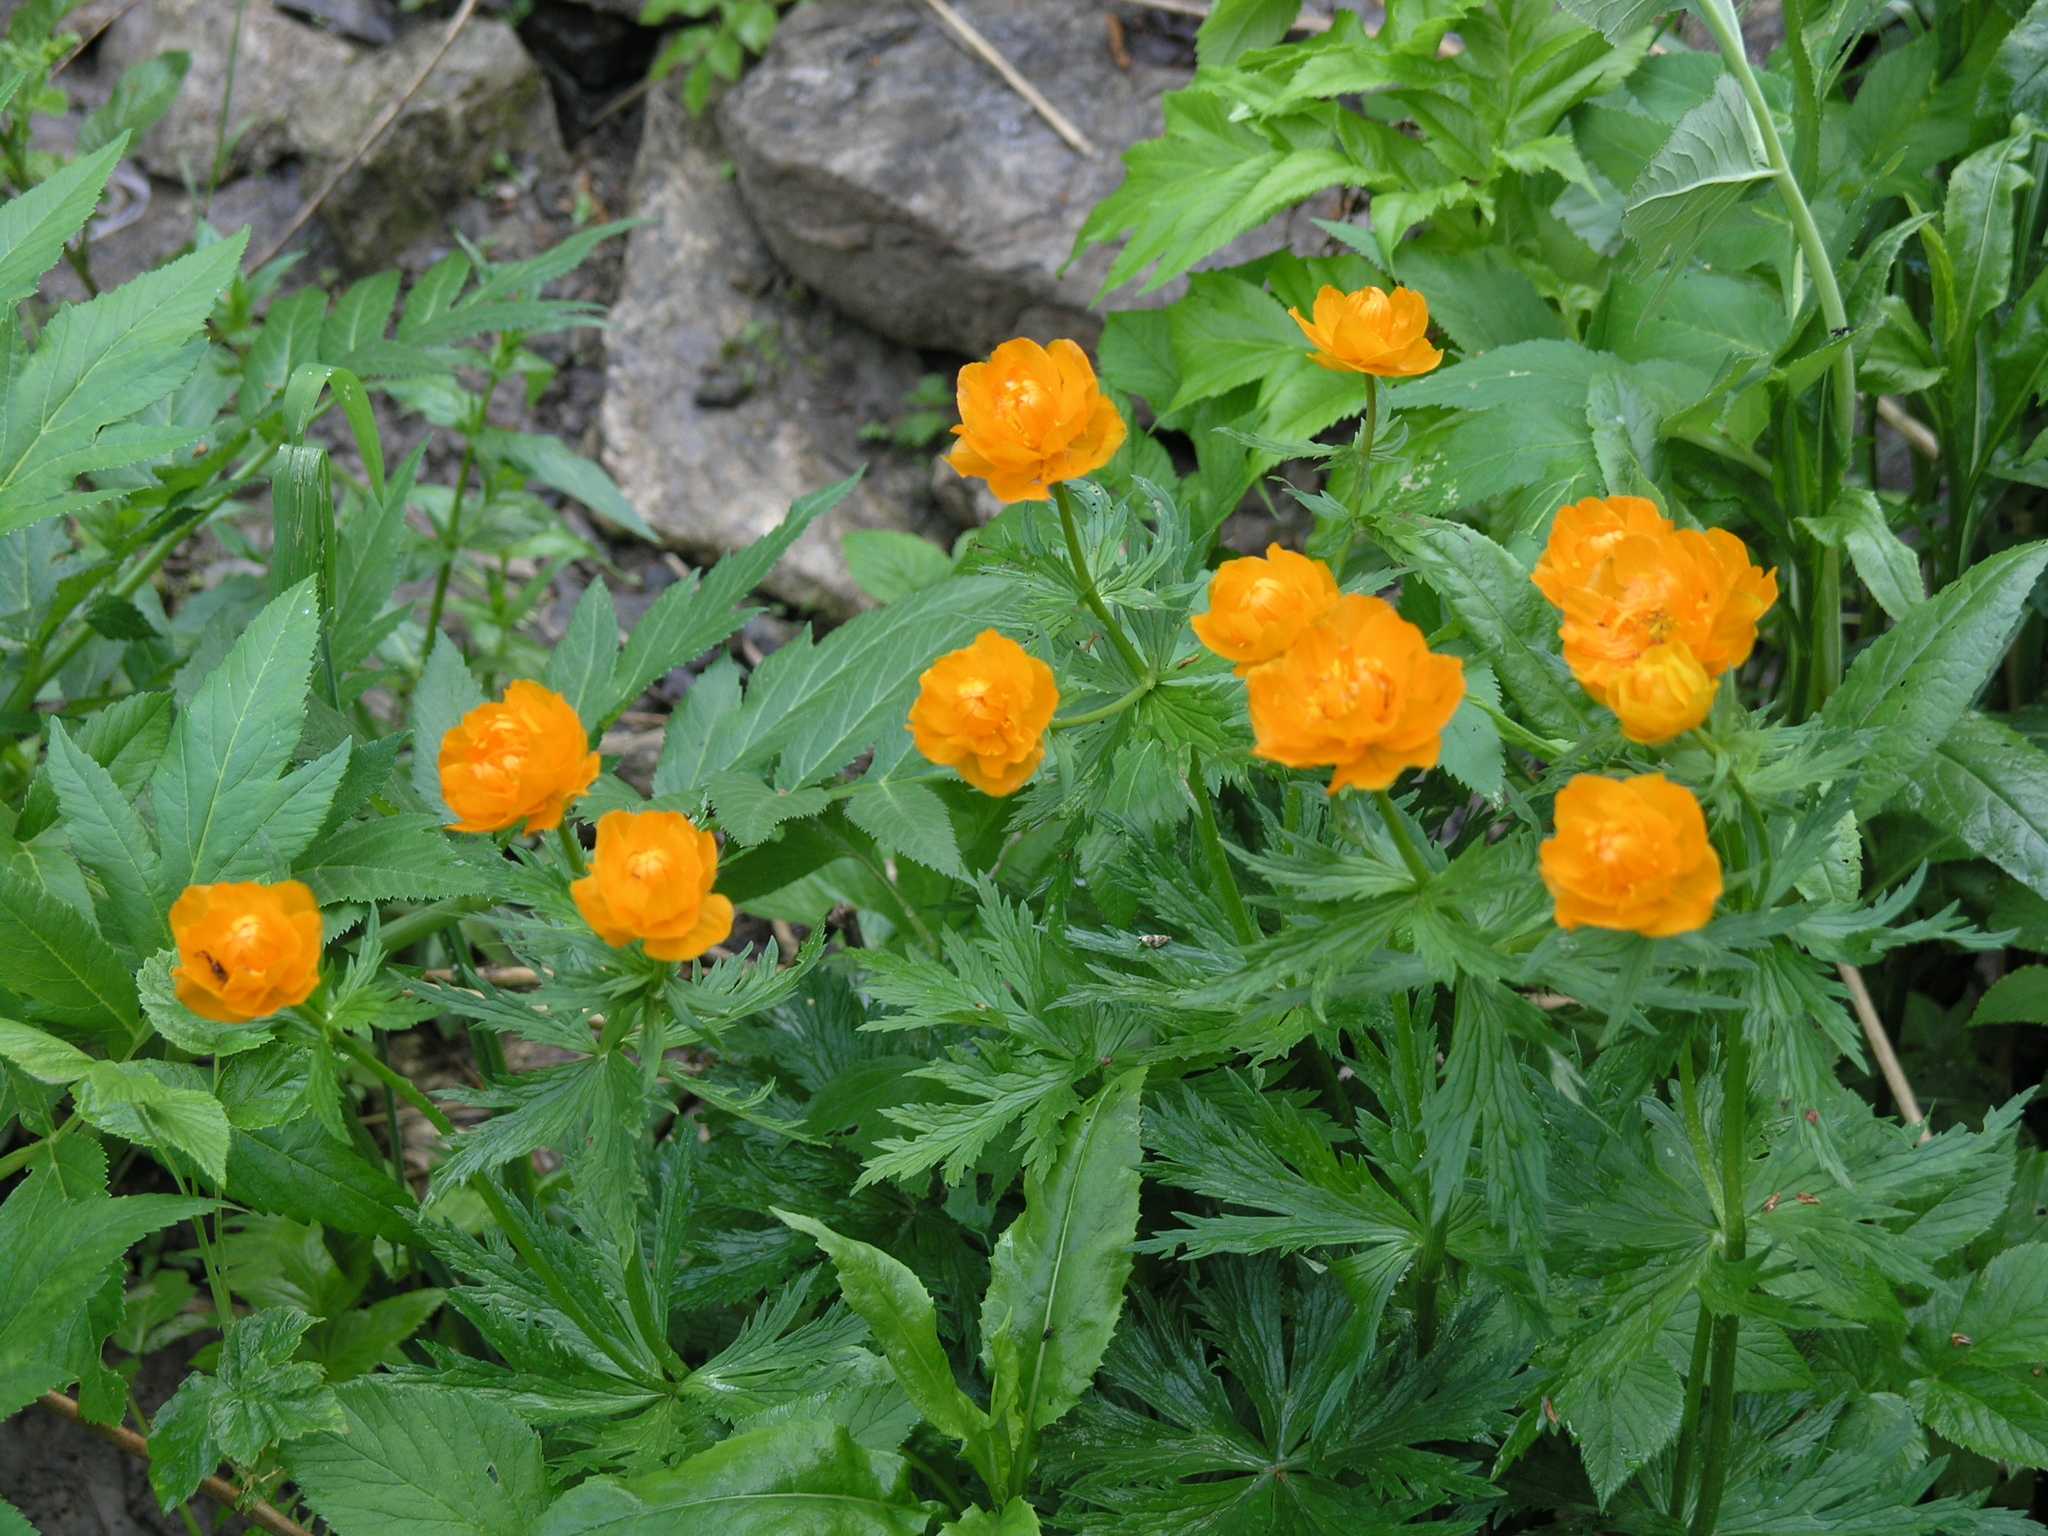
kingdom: Plantae
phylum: Tracheophyta
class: Magnoliopsida
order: Ranunculales
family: Ranunculaceae
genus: Trollius
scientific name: Trollius asiaticus
